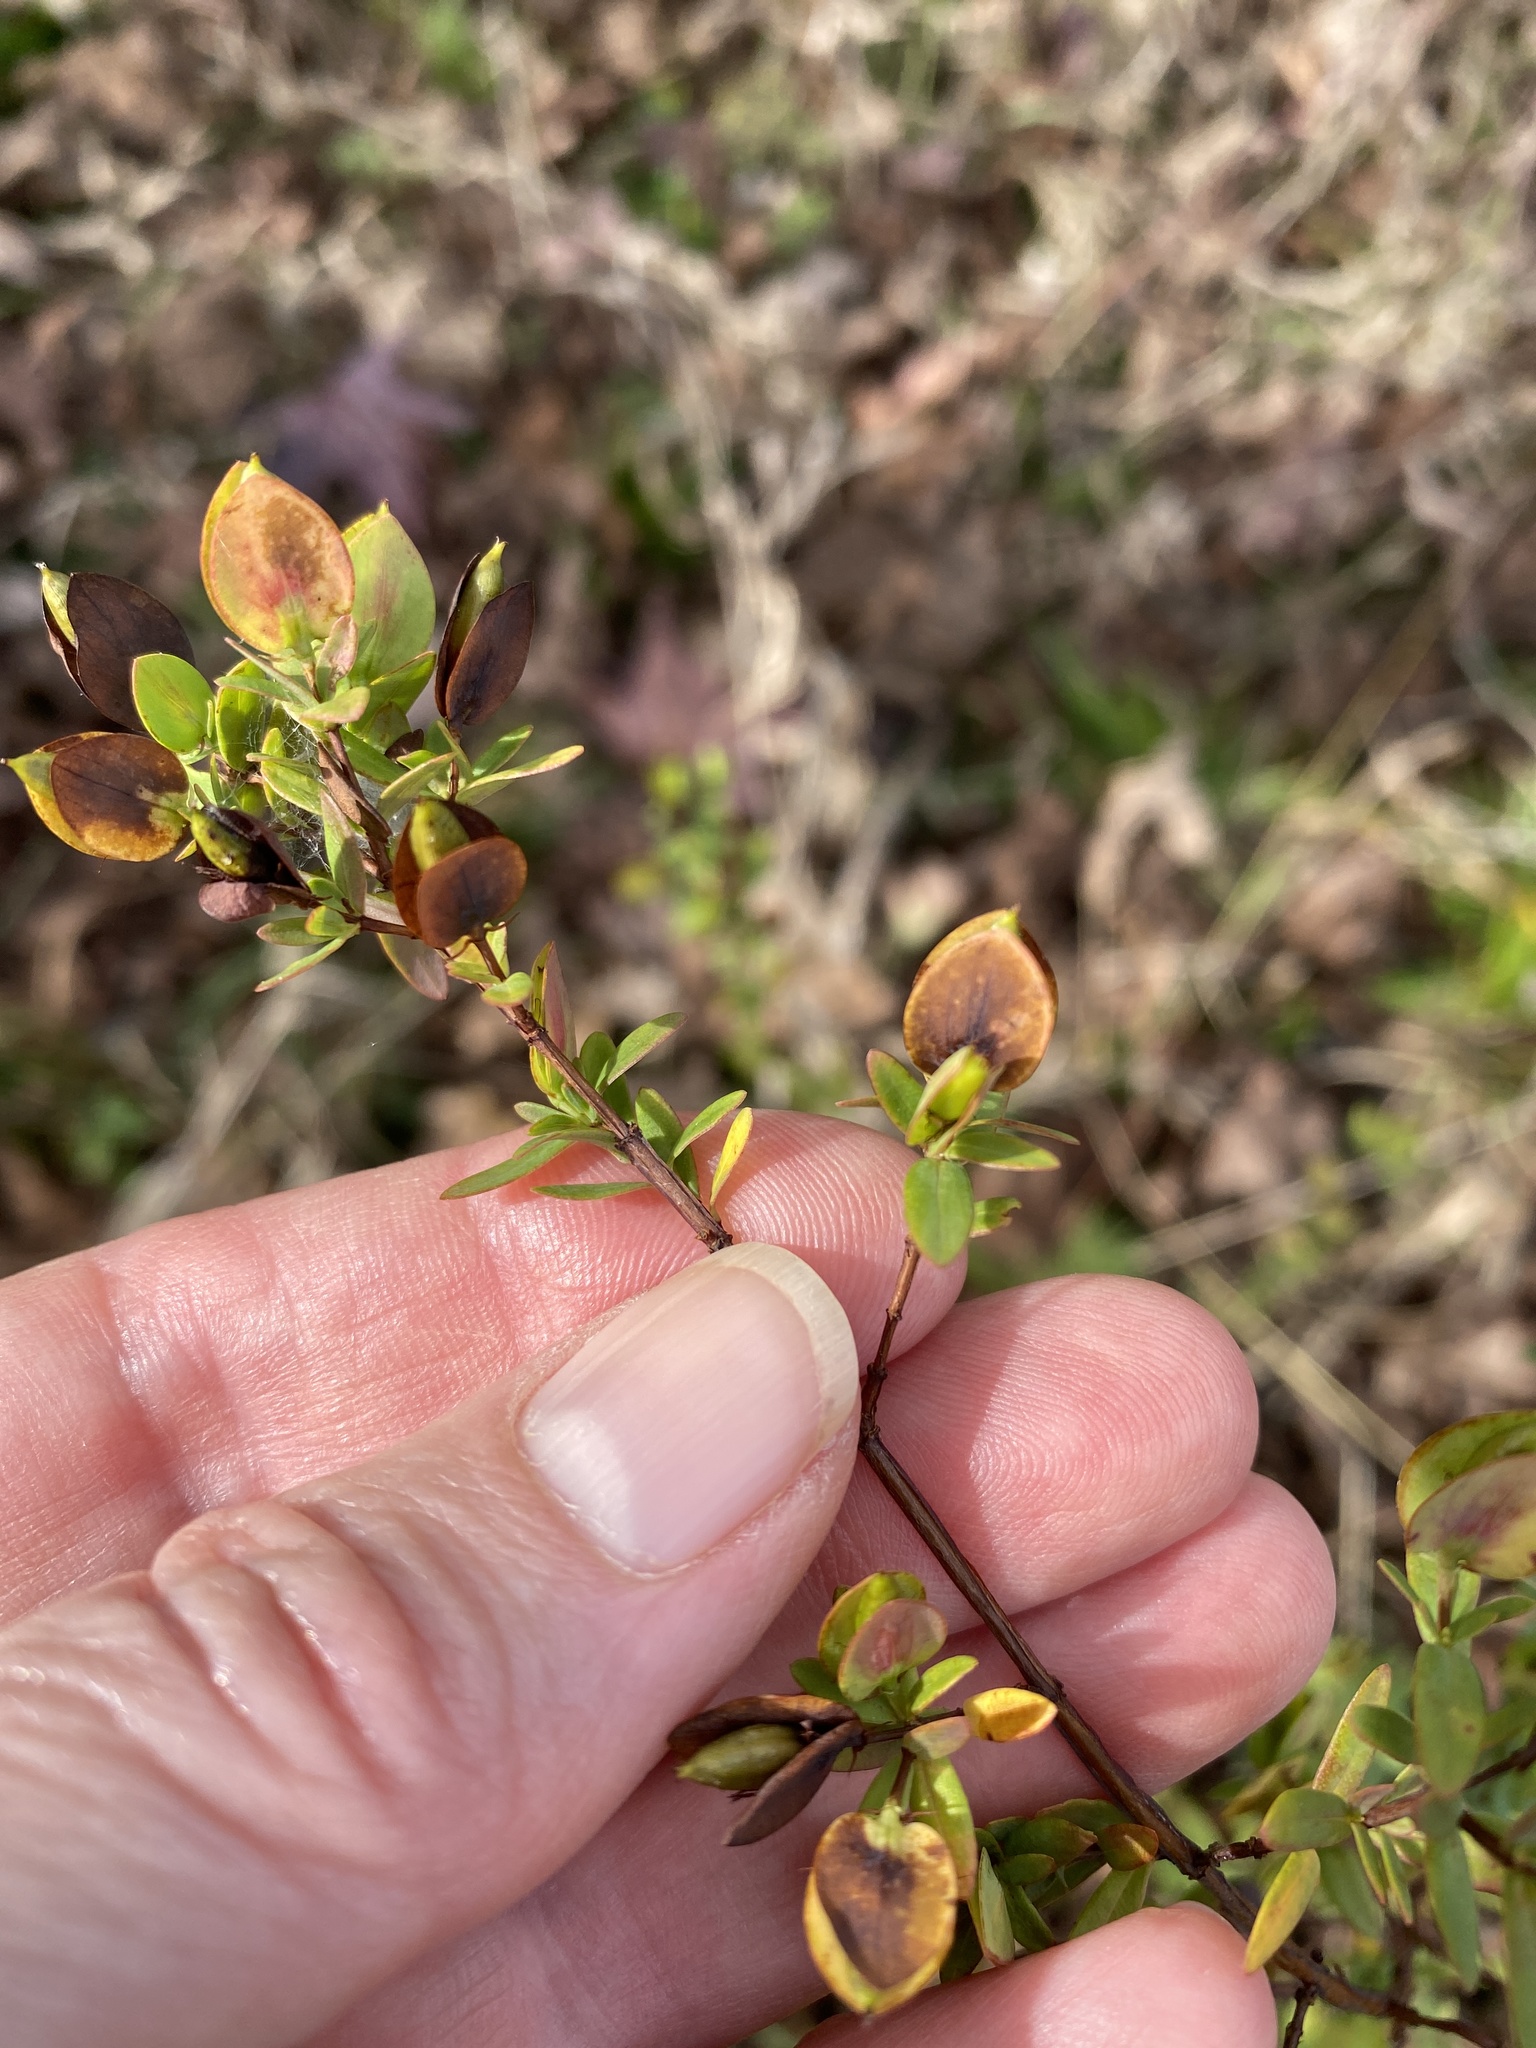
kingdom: Plantae
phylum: Tracheophyta
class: Magnoliopsida
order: Malpighiales
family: Hypericaceae
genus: Hypericum
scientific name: Hypericum hypericoides
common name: St. andrew's cross
